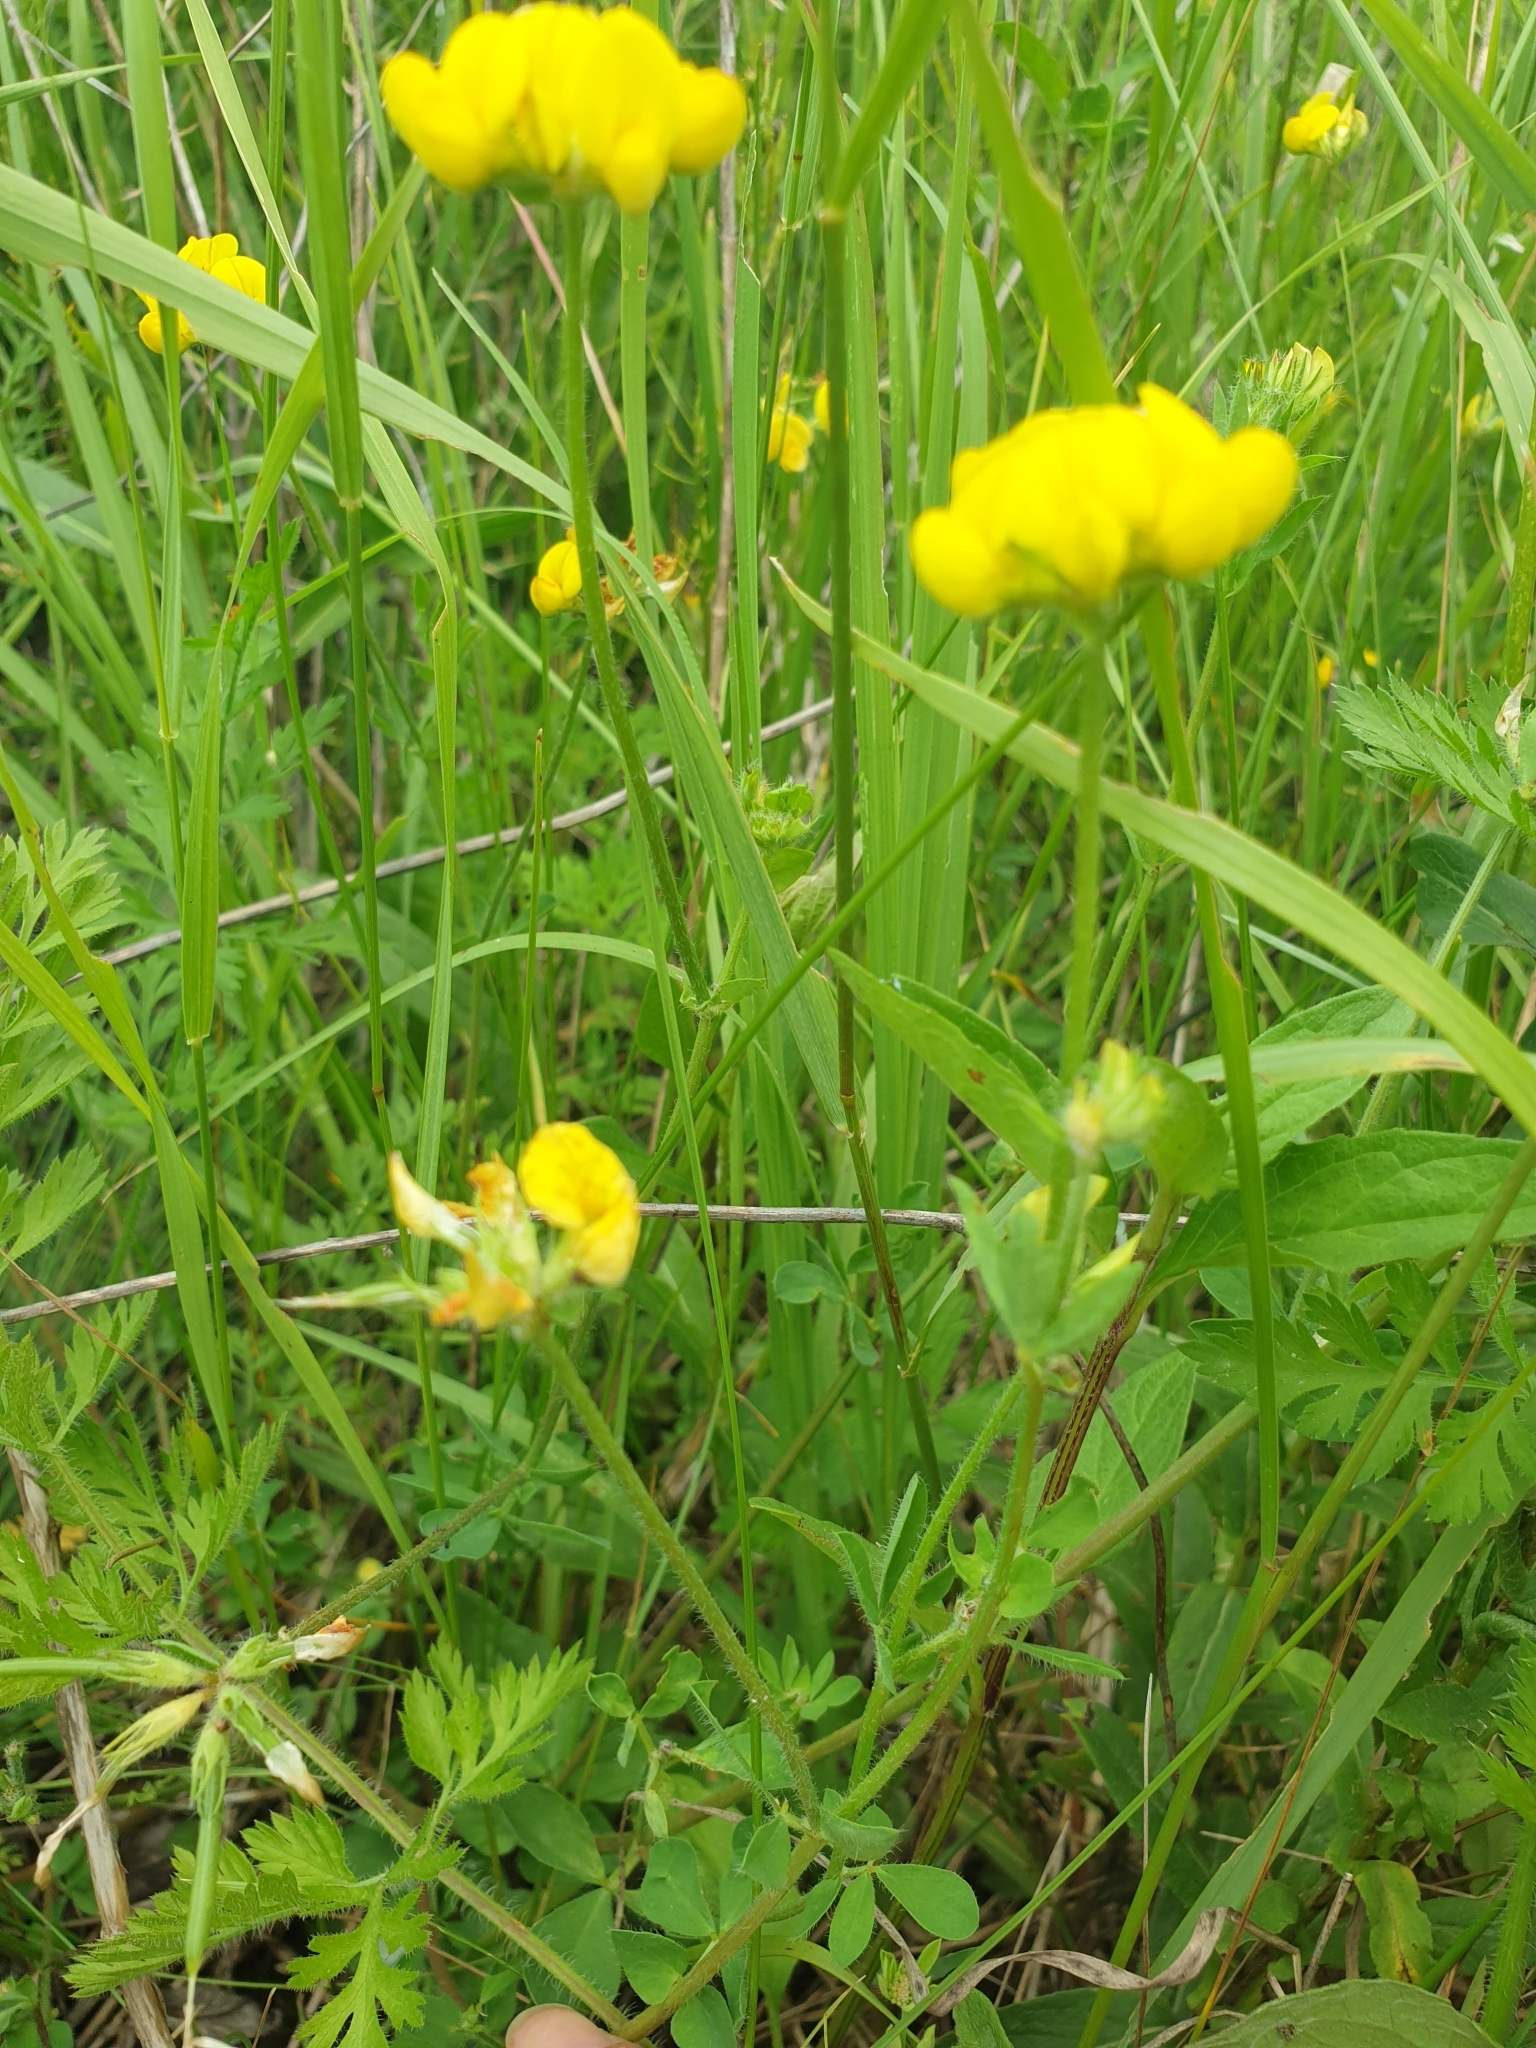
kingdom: Plantae
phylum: Tracheophyta
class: Magnoliopsida
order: Fabales
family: Fabaceae
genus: Lotus
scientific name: Lotus corniculatus
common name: Common bird's-foot-trefoil
